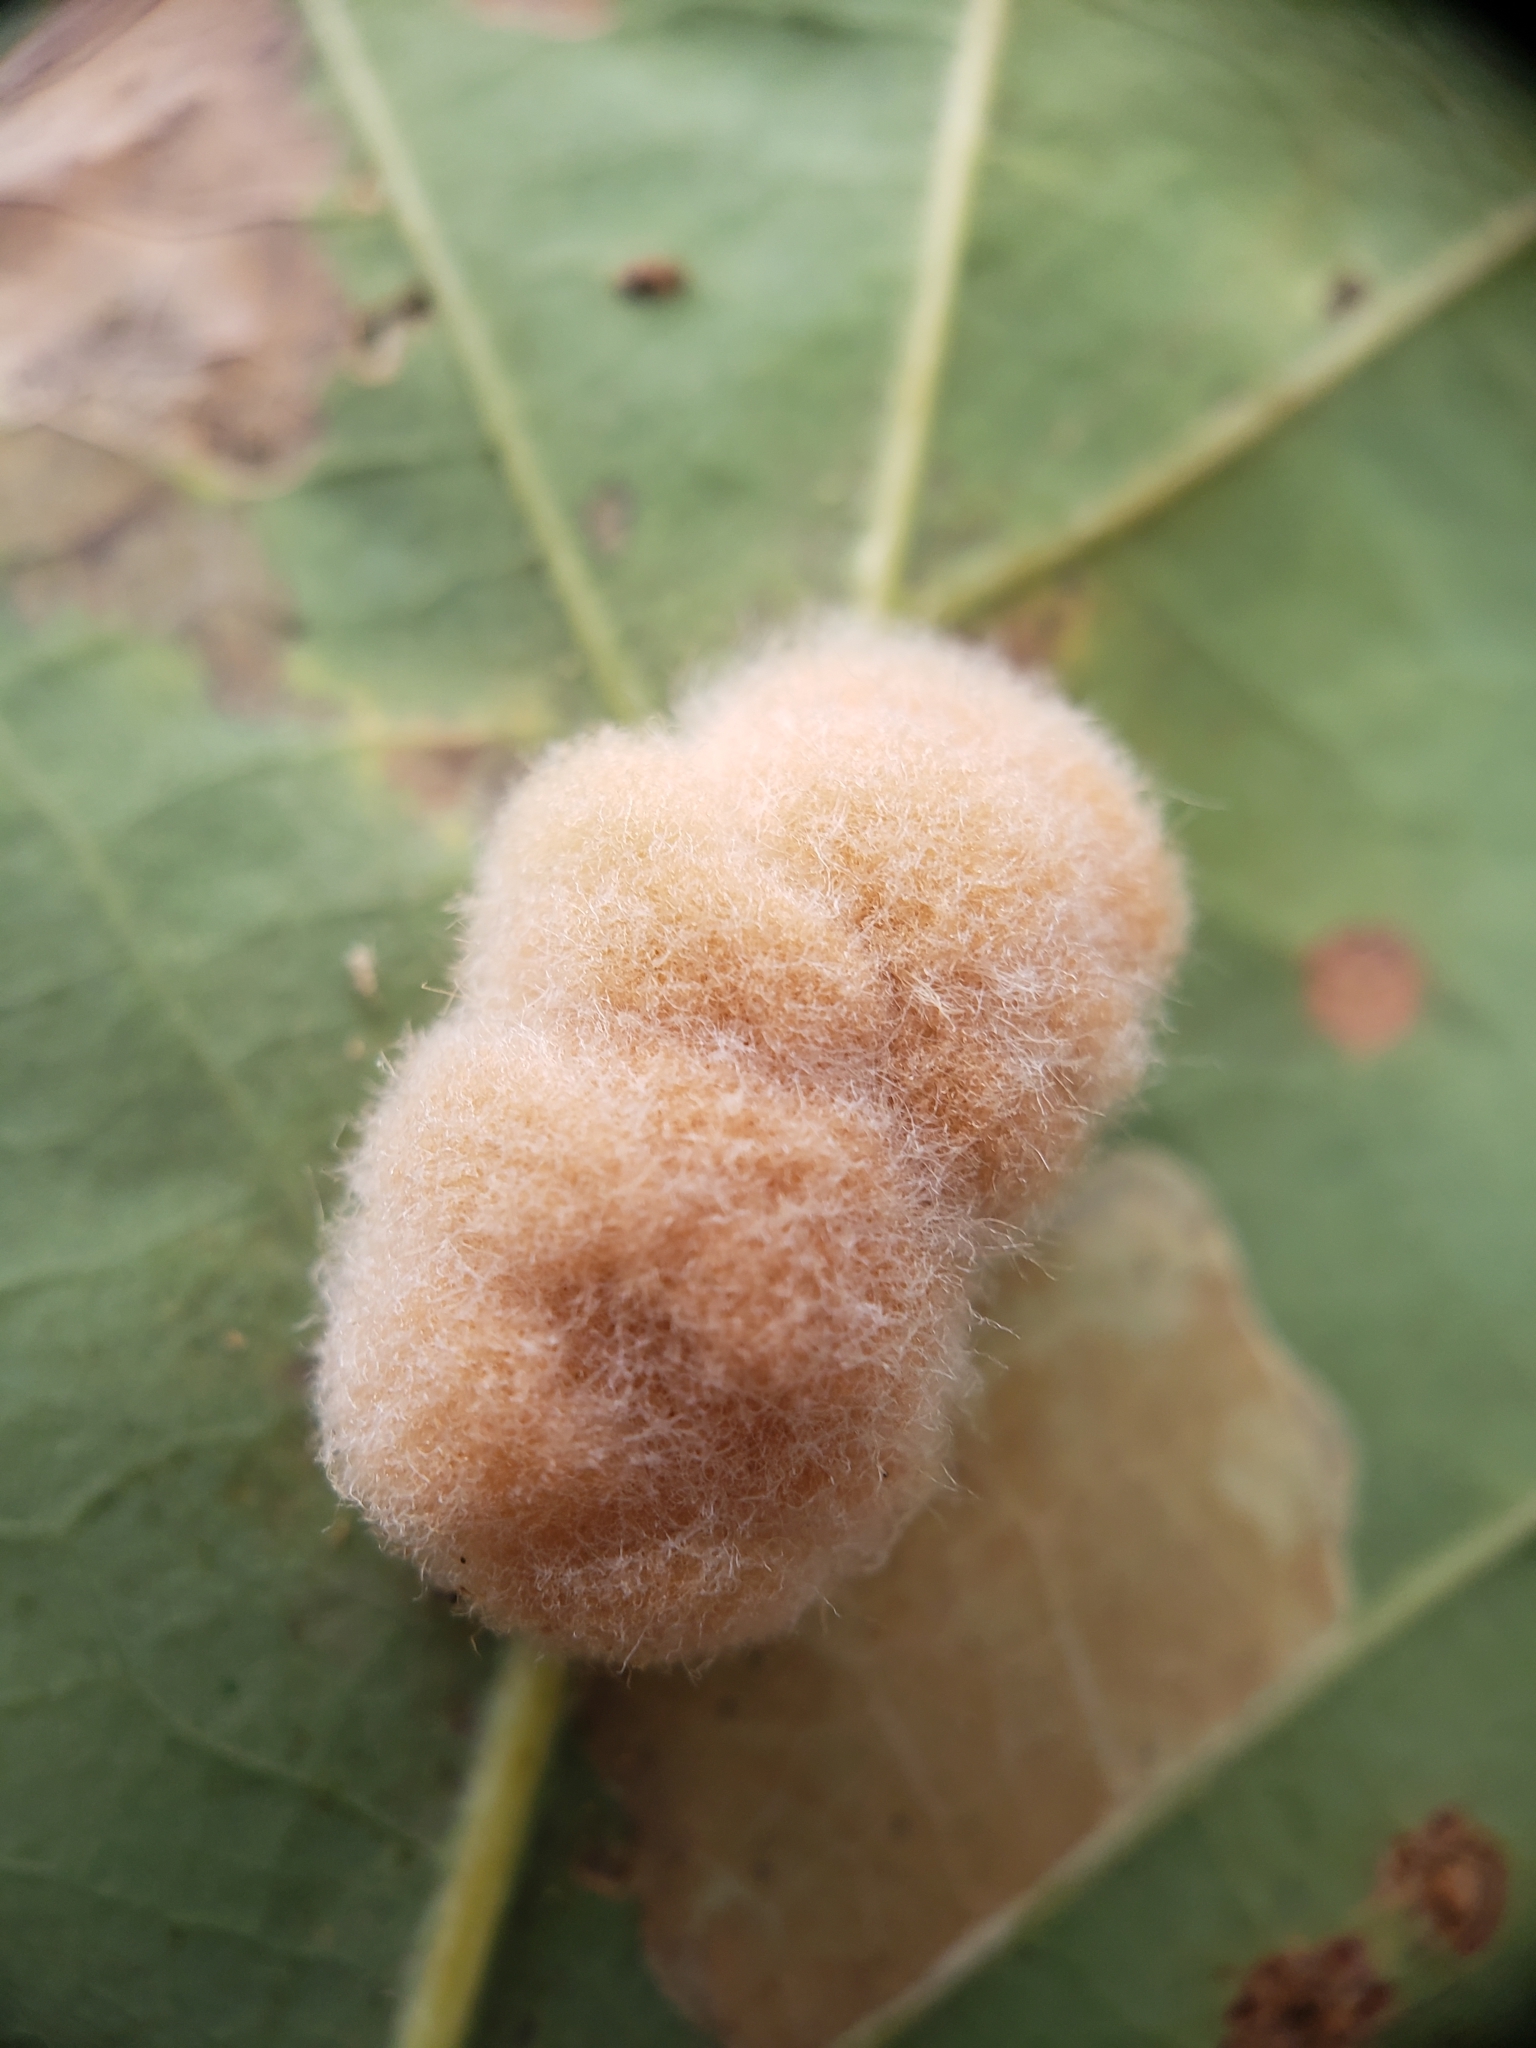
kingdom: Animalia
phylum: Arthropoda
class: Insecta
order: Hymenoptera
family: Cynipidae
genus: Andricus
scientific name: Andricus quercusflocci
